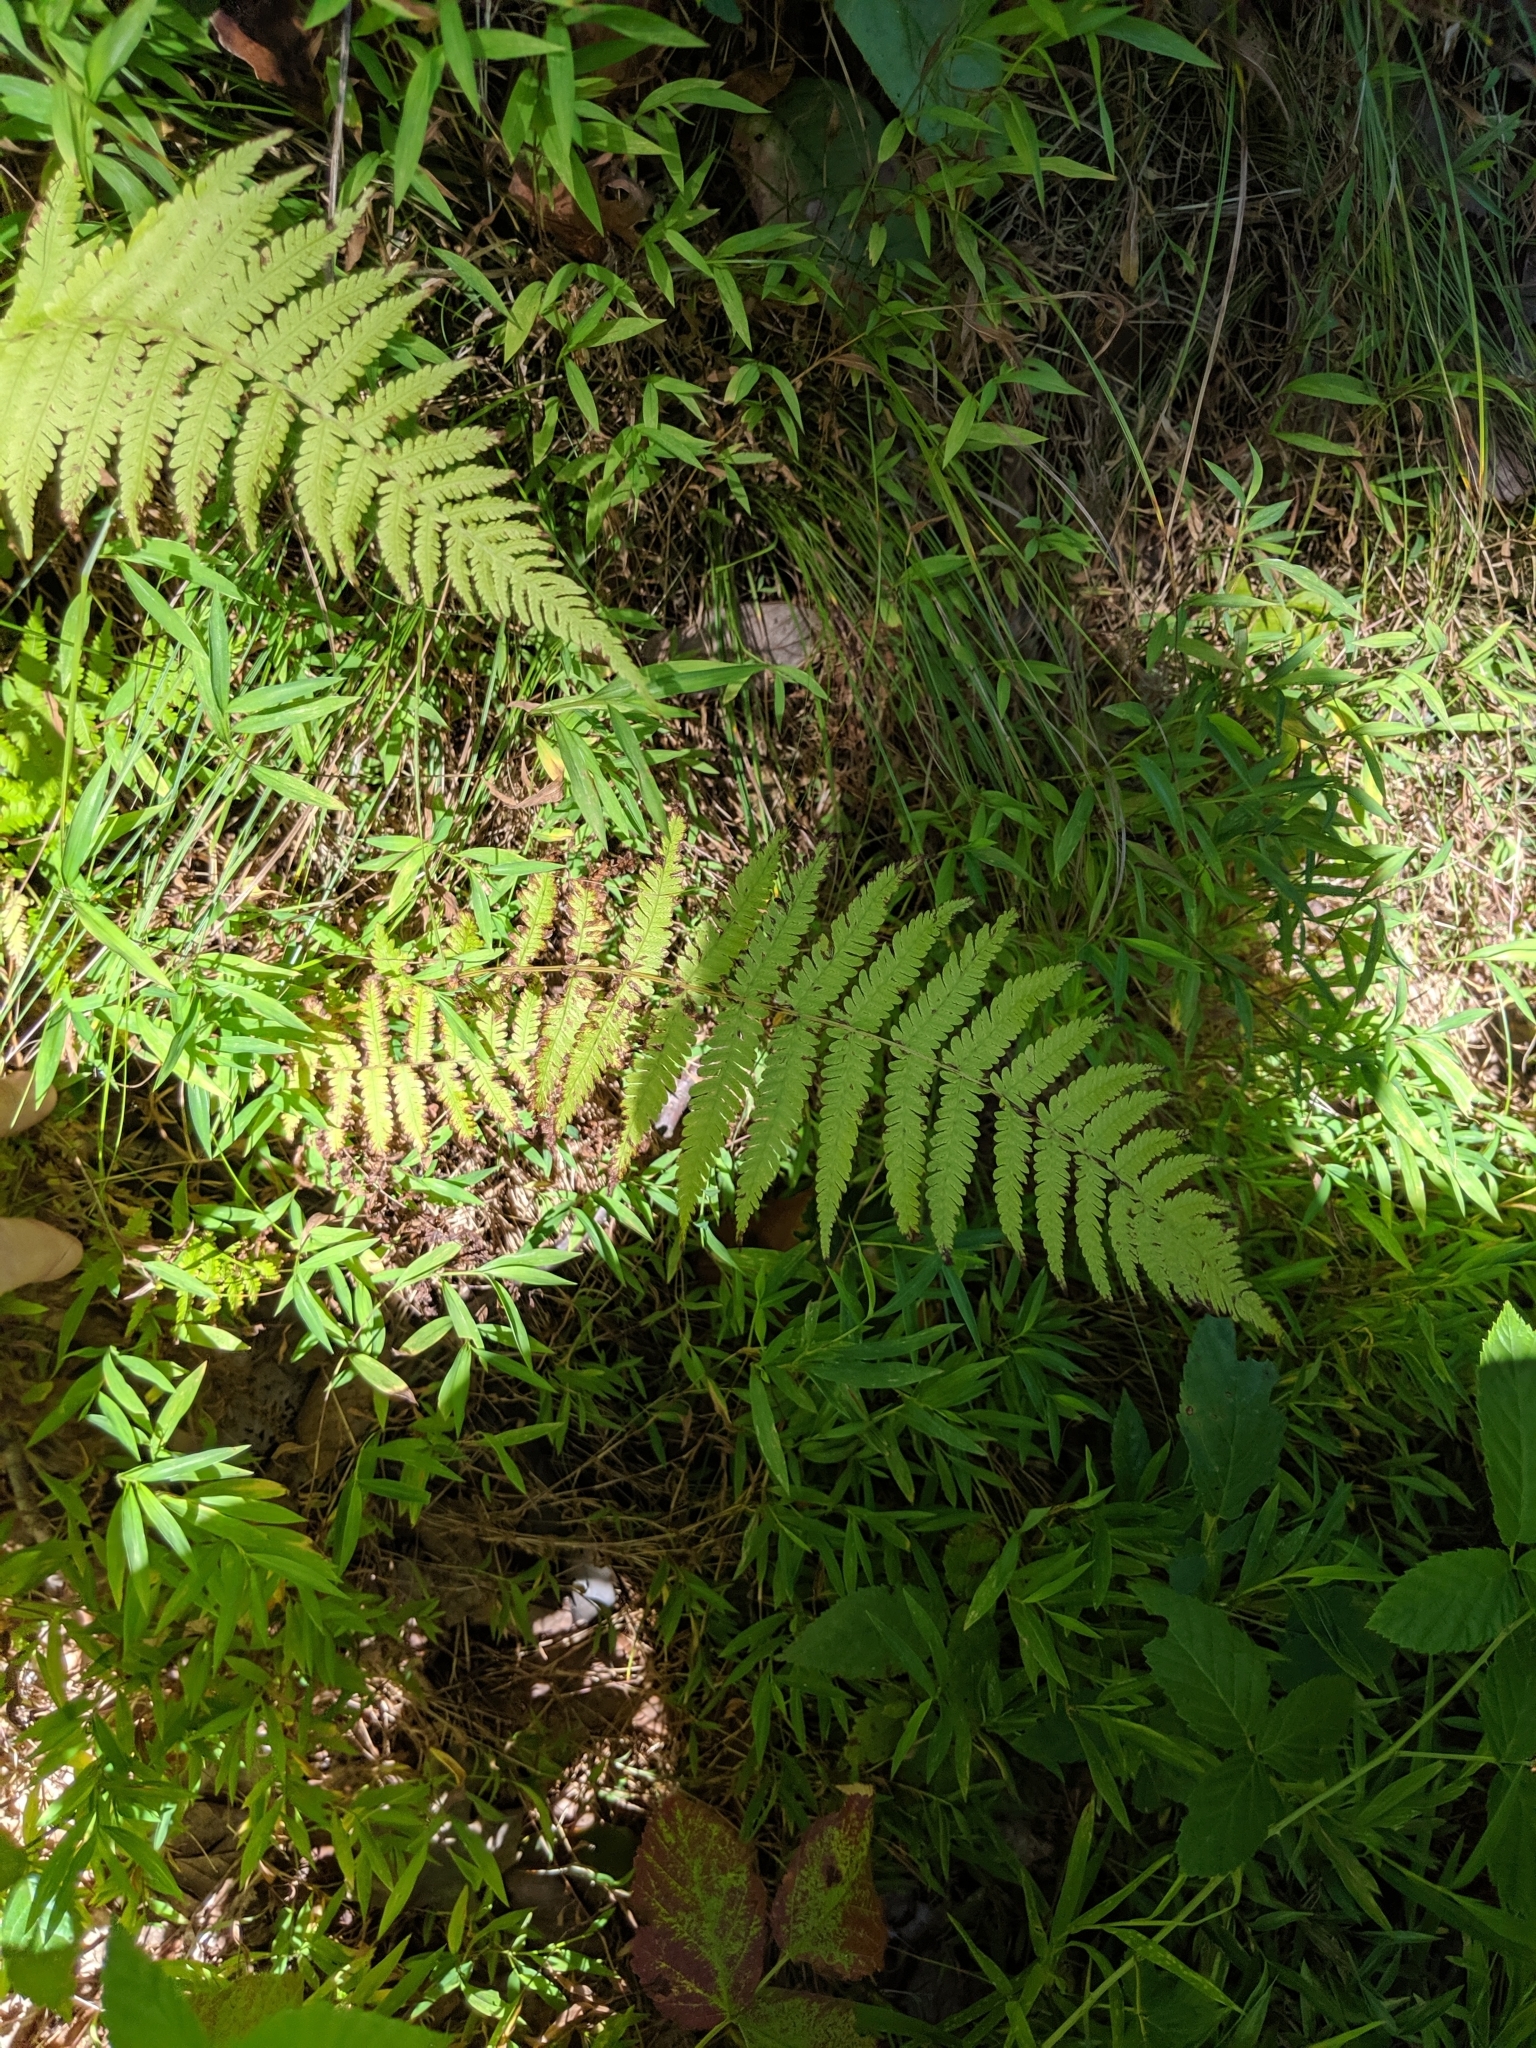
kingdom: Plantae
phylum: Tracheophyta
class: Polypodiopsida
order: Polypodiales
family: Thelypteridaceae
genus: Amauropelta
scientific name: Amauropelta noveboracensis
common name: New york fern
